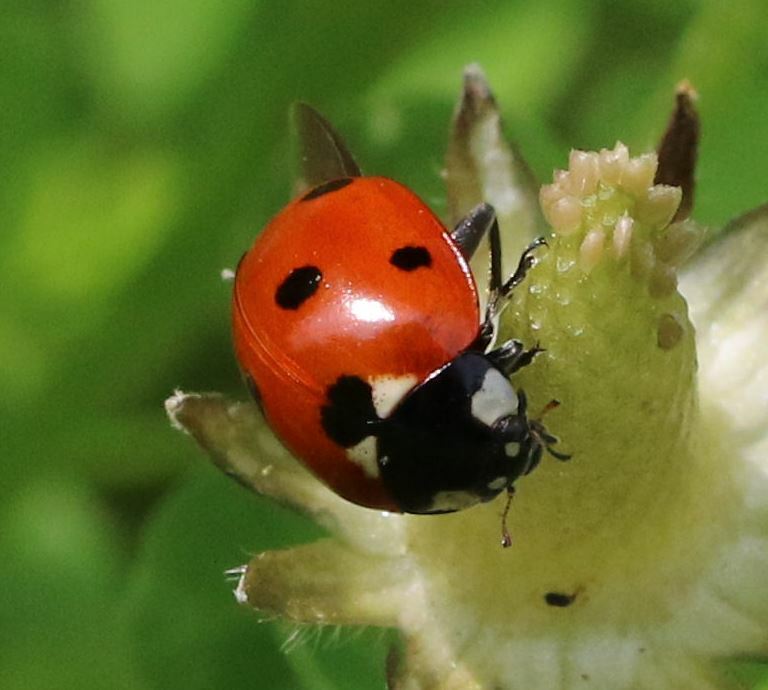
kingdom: Animalia
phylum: Arthropoda
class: Insecta
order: Coleoptera
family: Coccinellidae
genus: Coccinella
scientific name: Coccinella septempunctata
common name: Sevenspotted lady beetle
